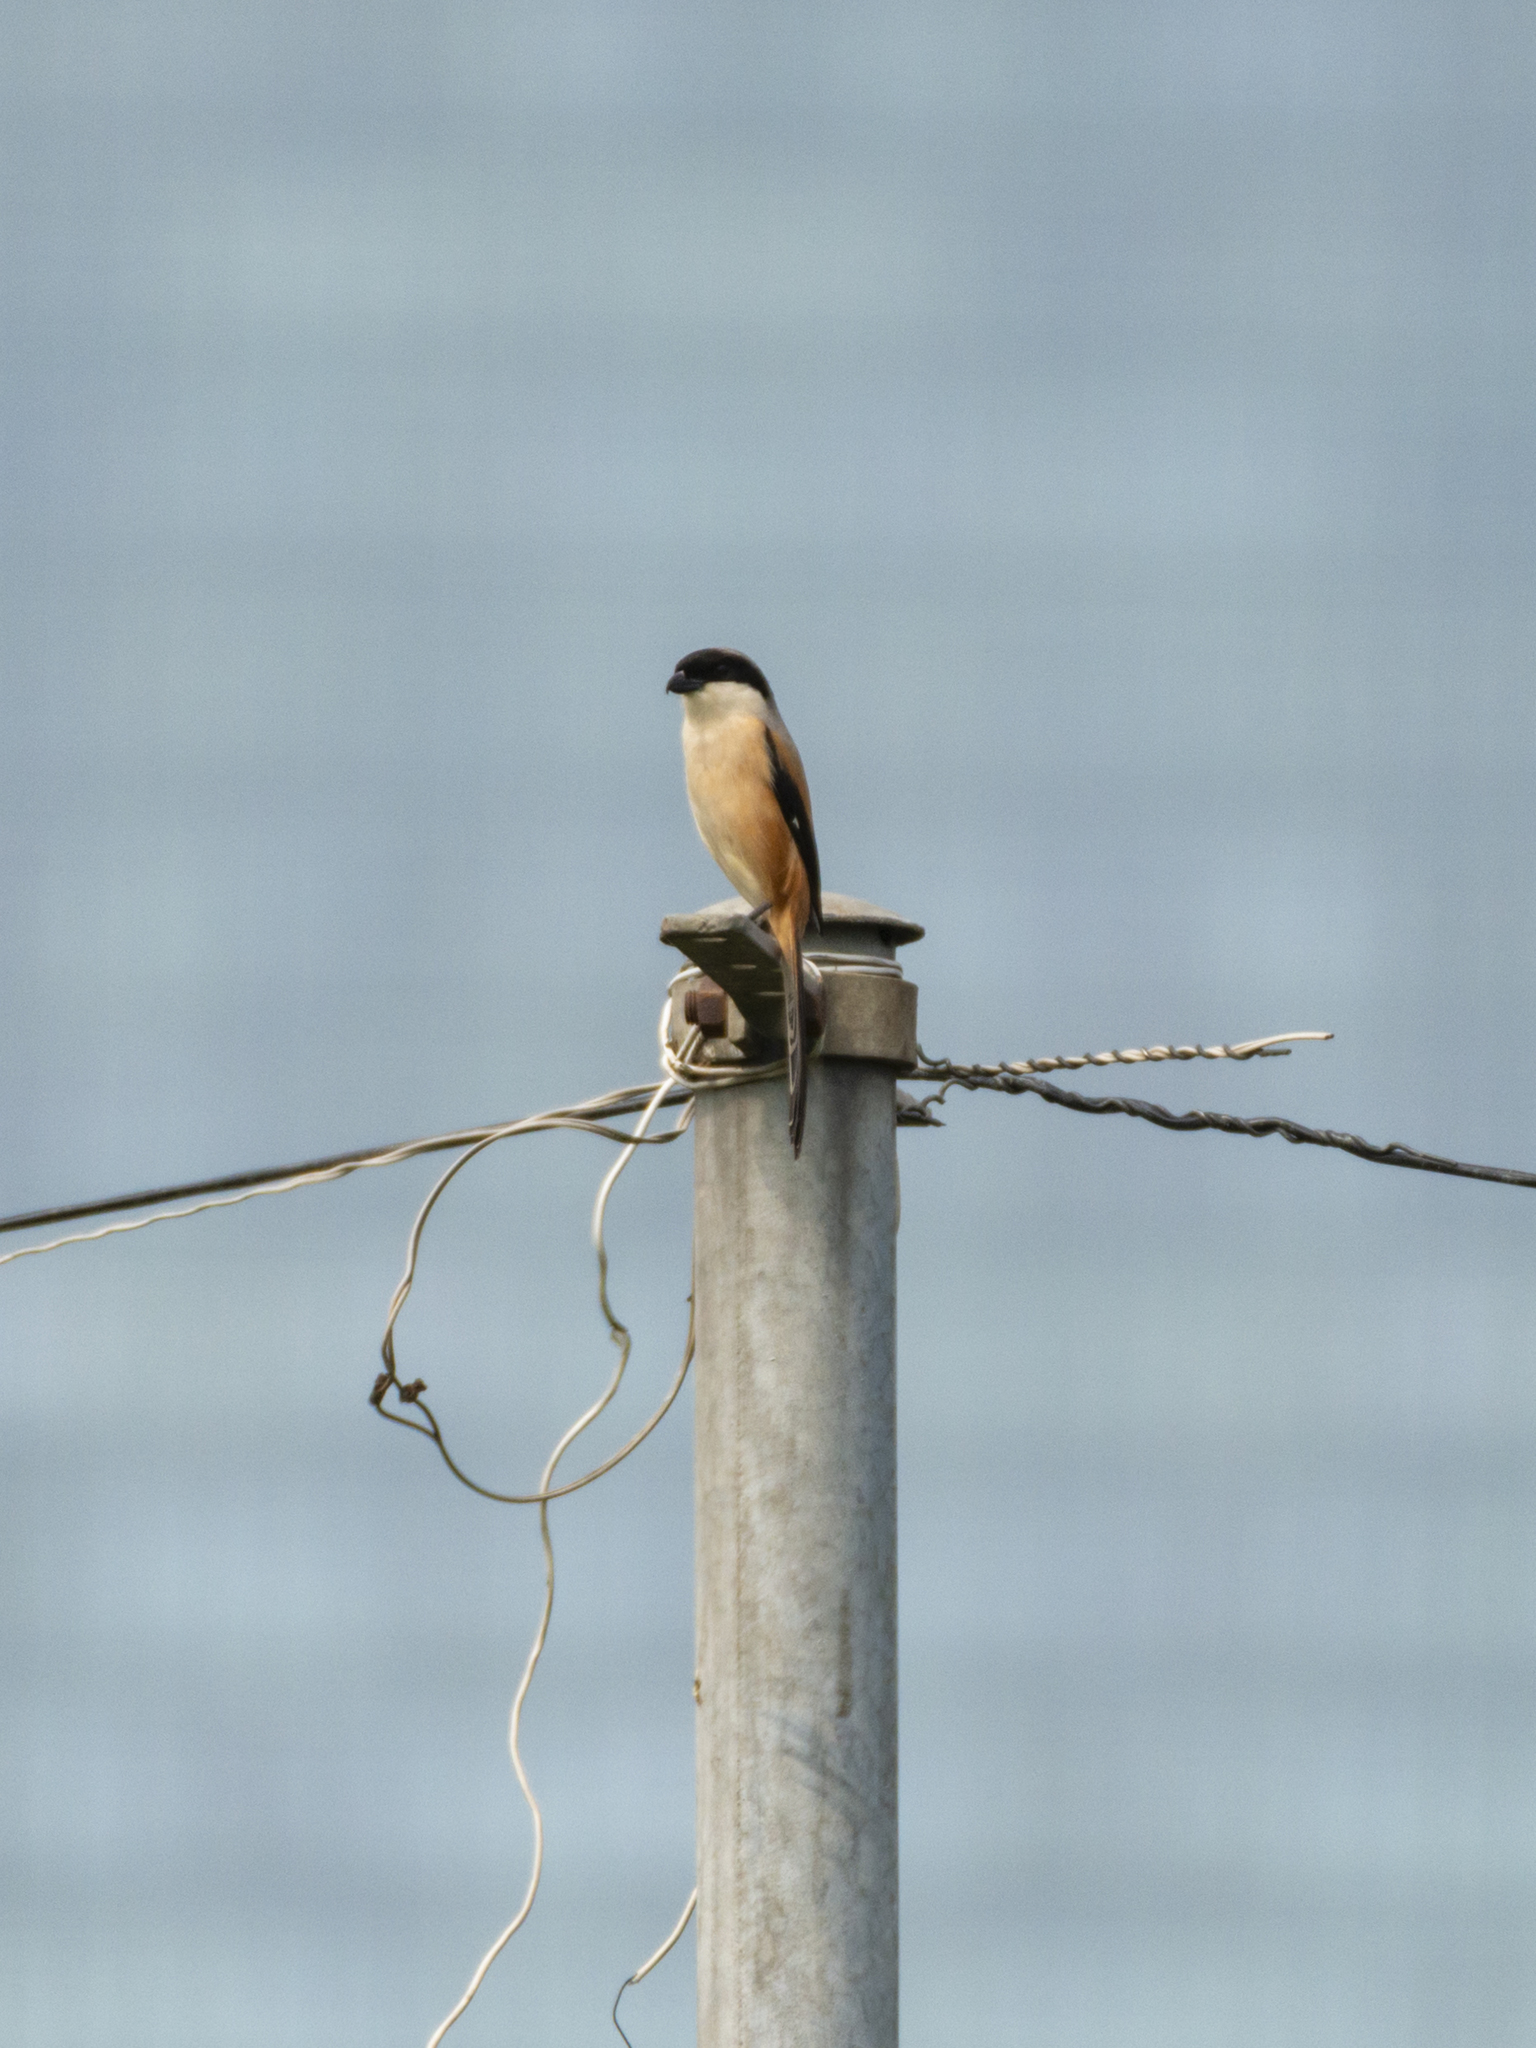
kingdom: Animalia
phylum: Chordata
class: Aves
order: Passeriformes
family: Laniidae
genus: Lanius
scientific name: Lanius schach
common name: Long-tailed shrike
